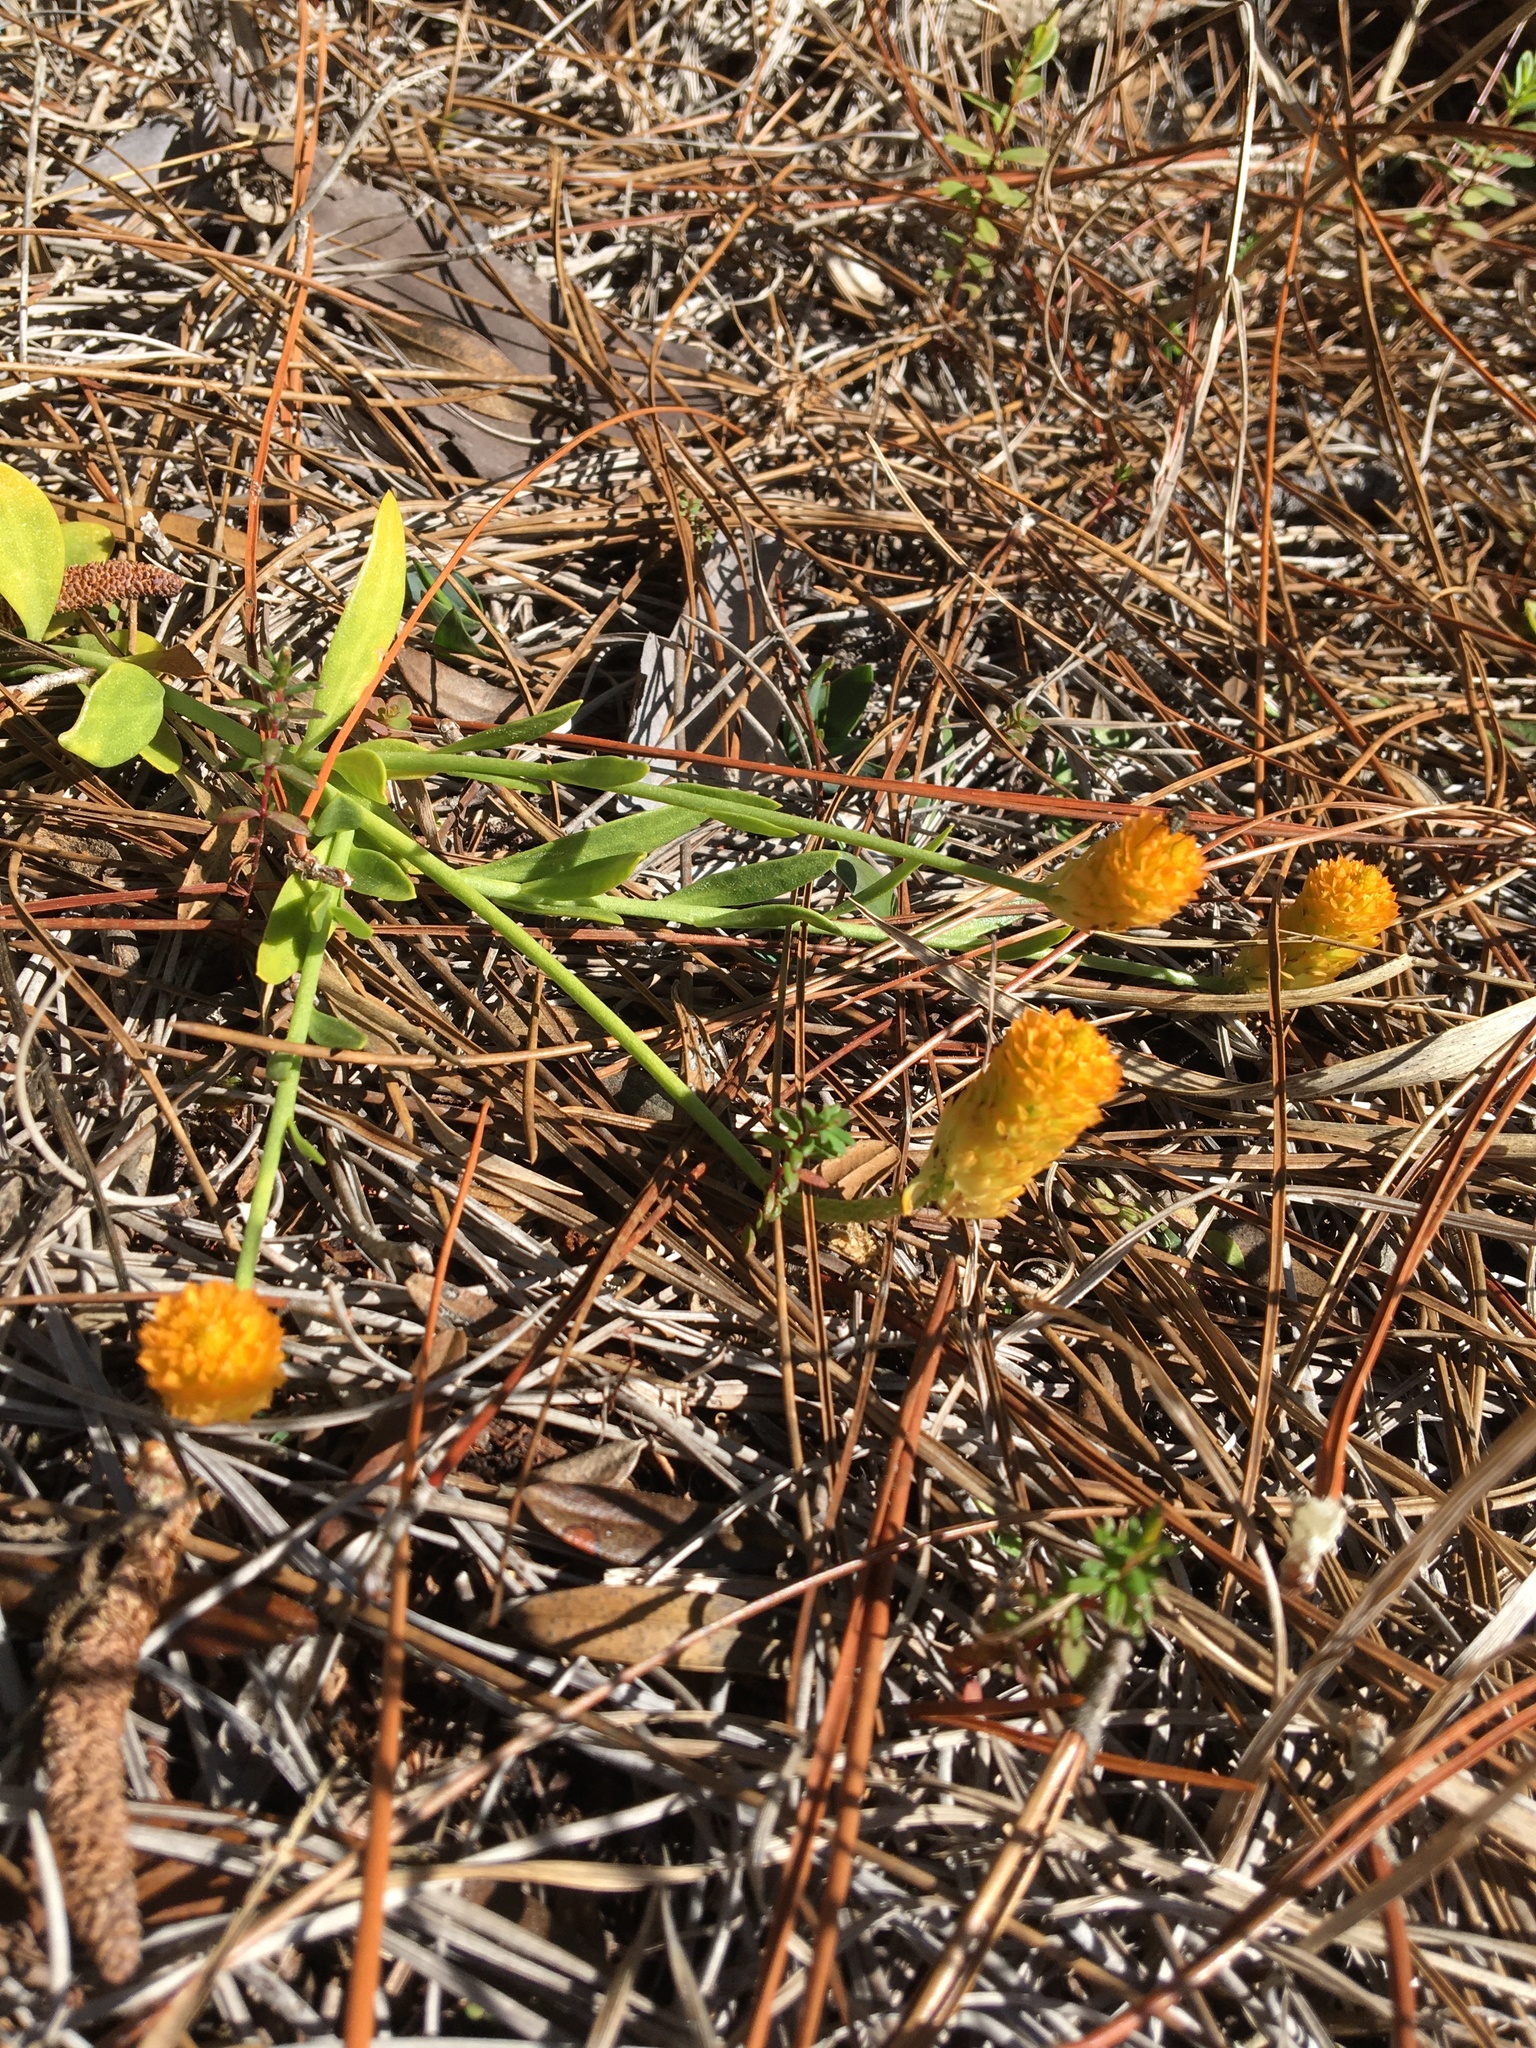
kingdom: Plantae
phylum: Tracheophyta
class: Magnoliopsida
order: Fabales
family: Polygalaceae
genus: Polygala
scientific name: Polygala lutea
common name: Orange milkwort
